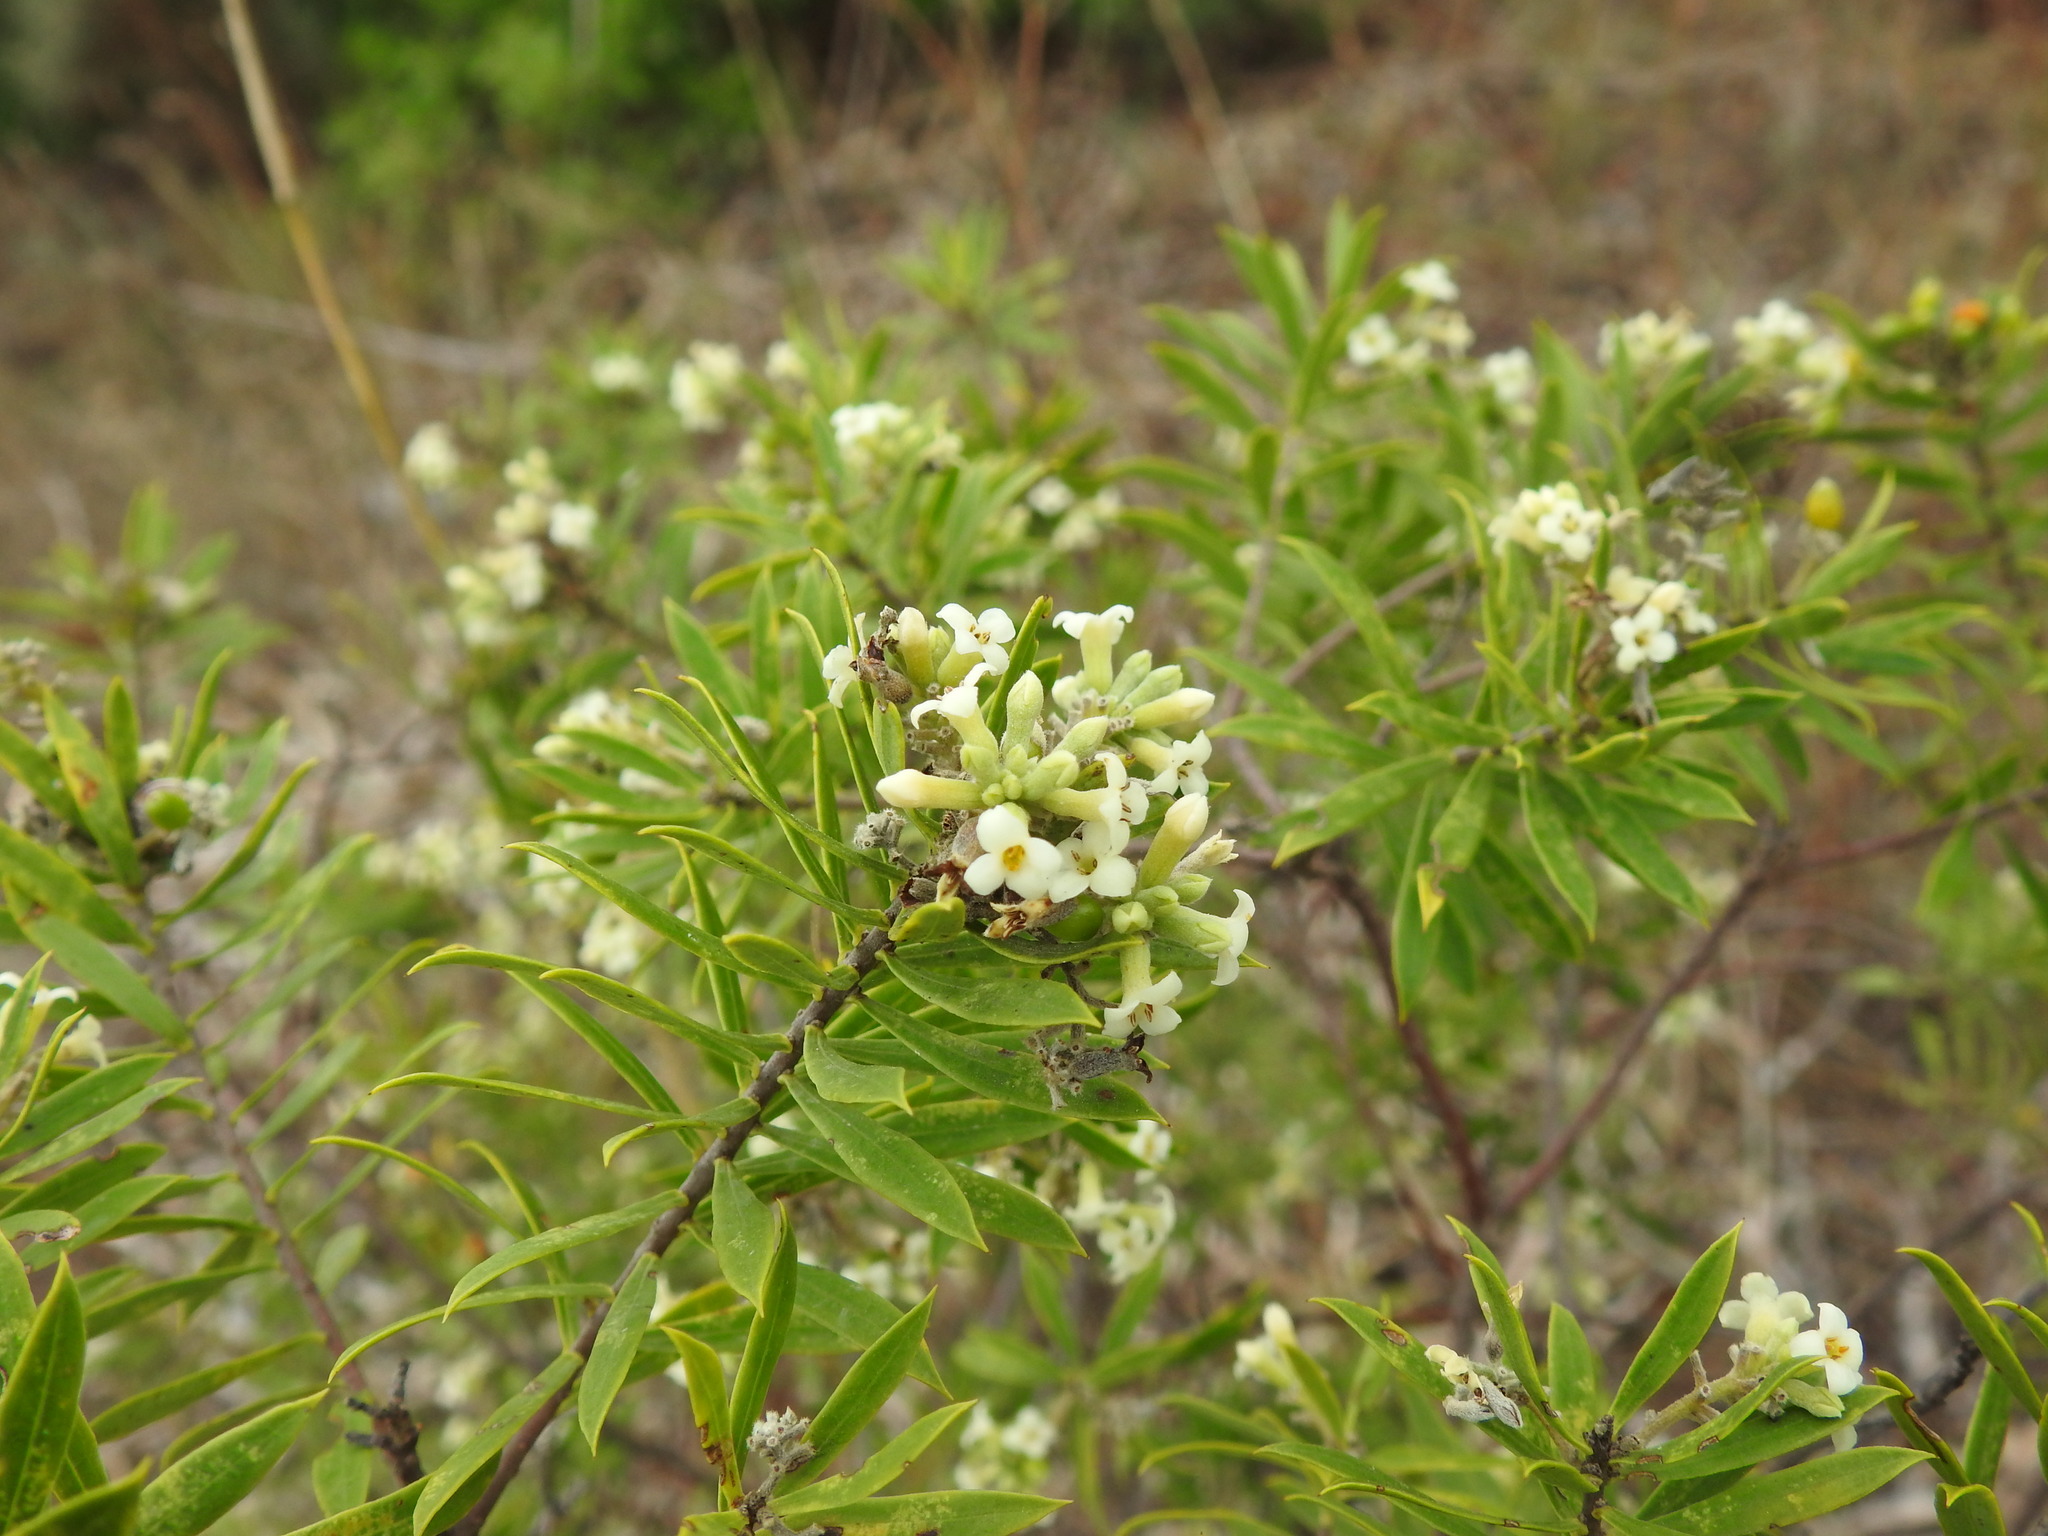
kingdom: Plantae
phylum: Tracheophyta
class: Magnoliopsida
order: Malvales
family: Thymelaeaceae
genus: Daphne
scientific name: Daphne gnidium
